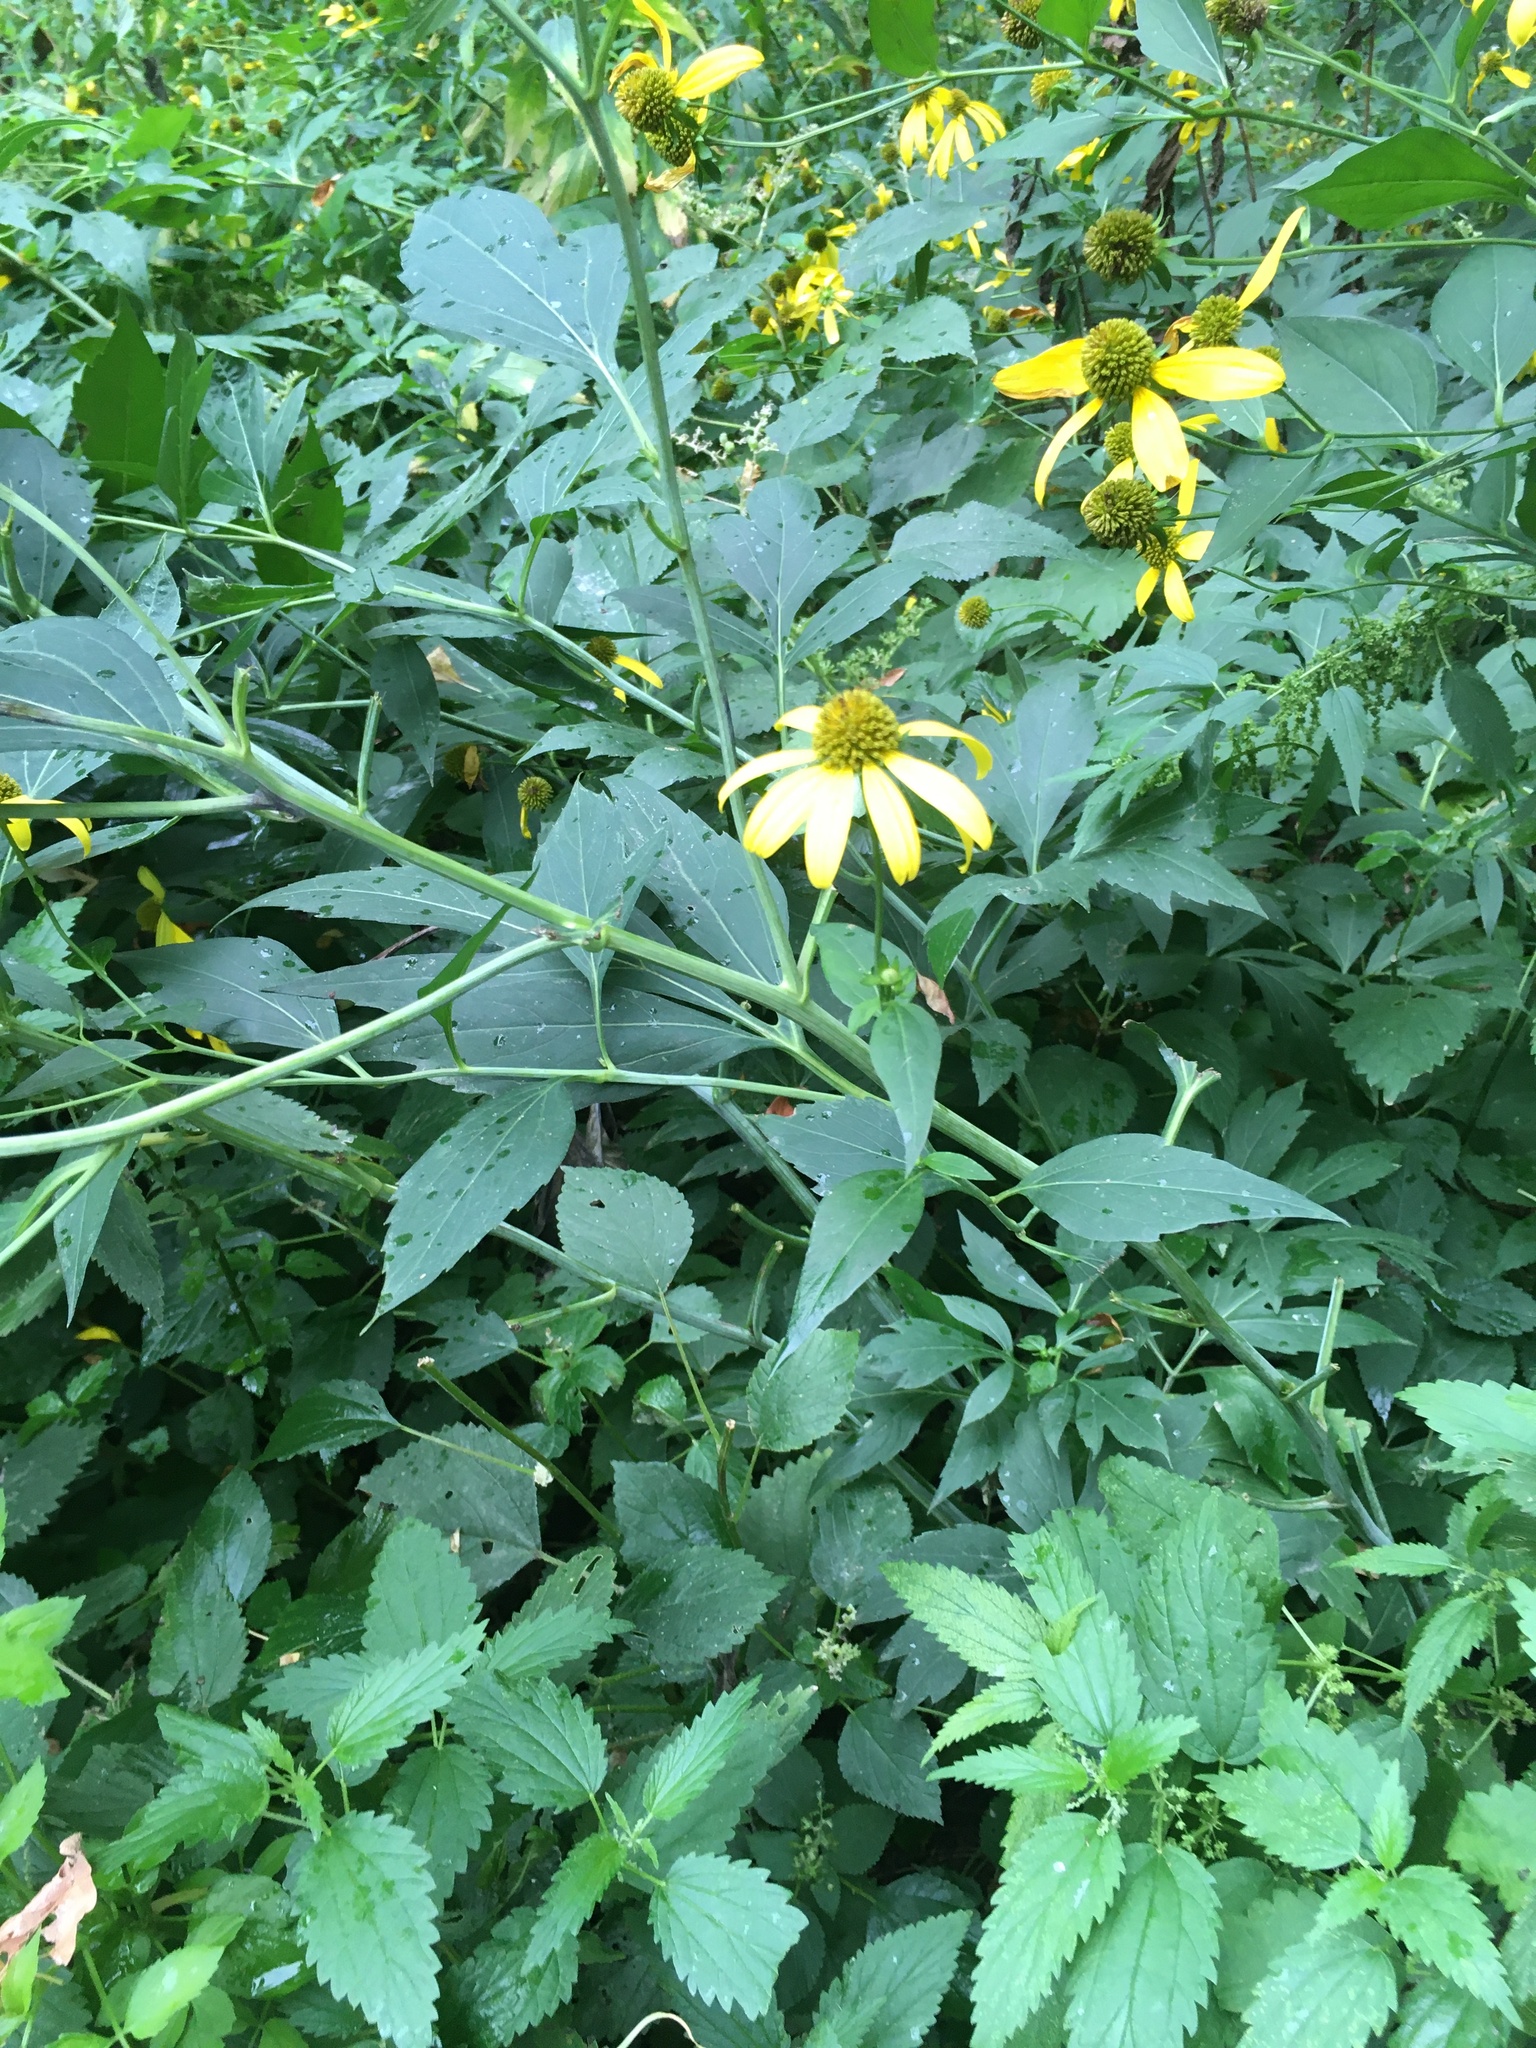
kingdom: Plantae
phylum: Tracheophyta
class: Magnoliopsida
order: Asterales
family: Asteraceae
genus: Rudbeckia
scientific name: Rudbeckia laciniata
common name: Coneflower
